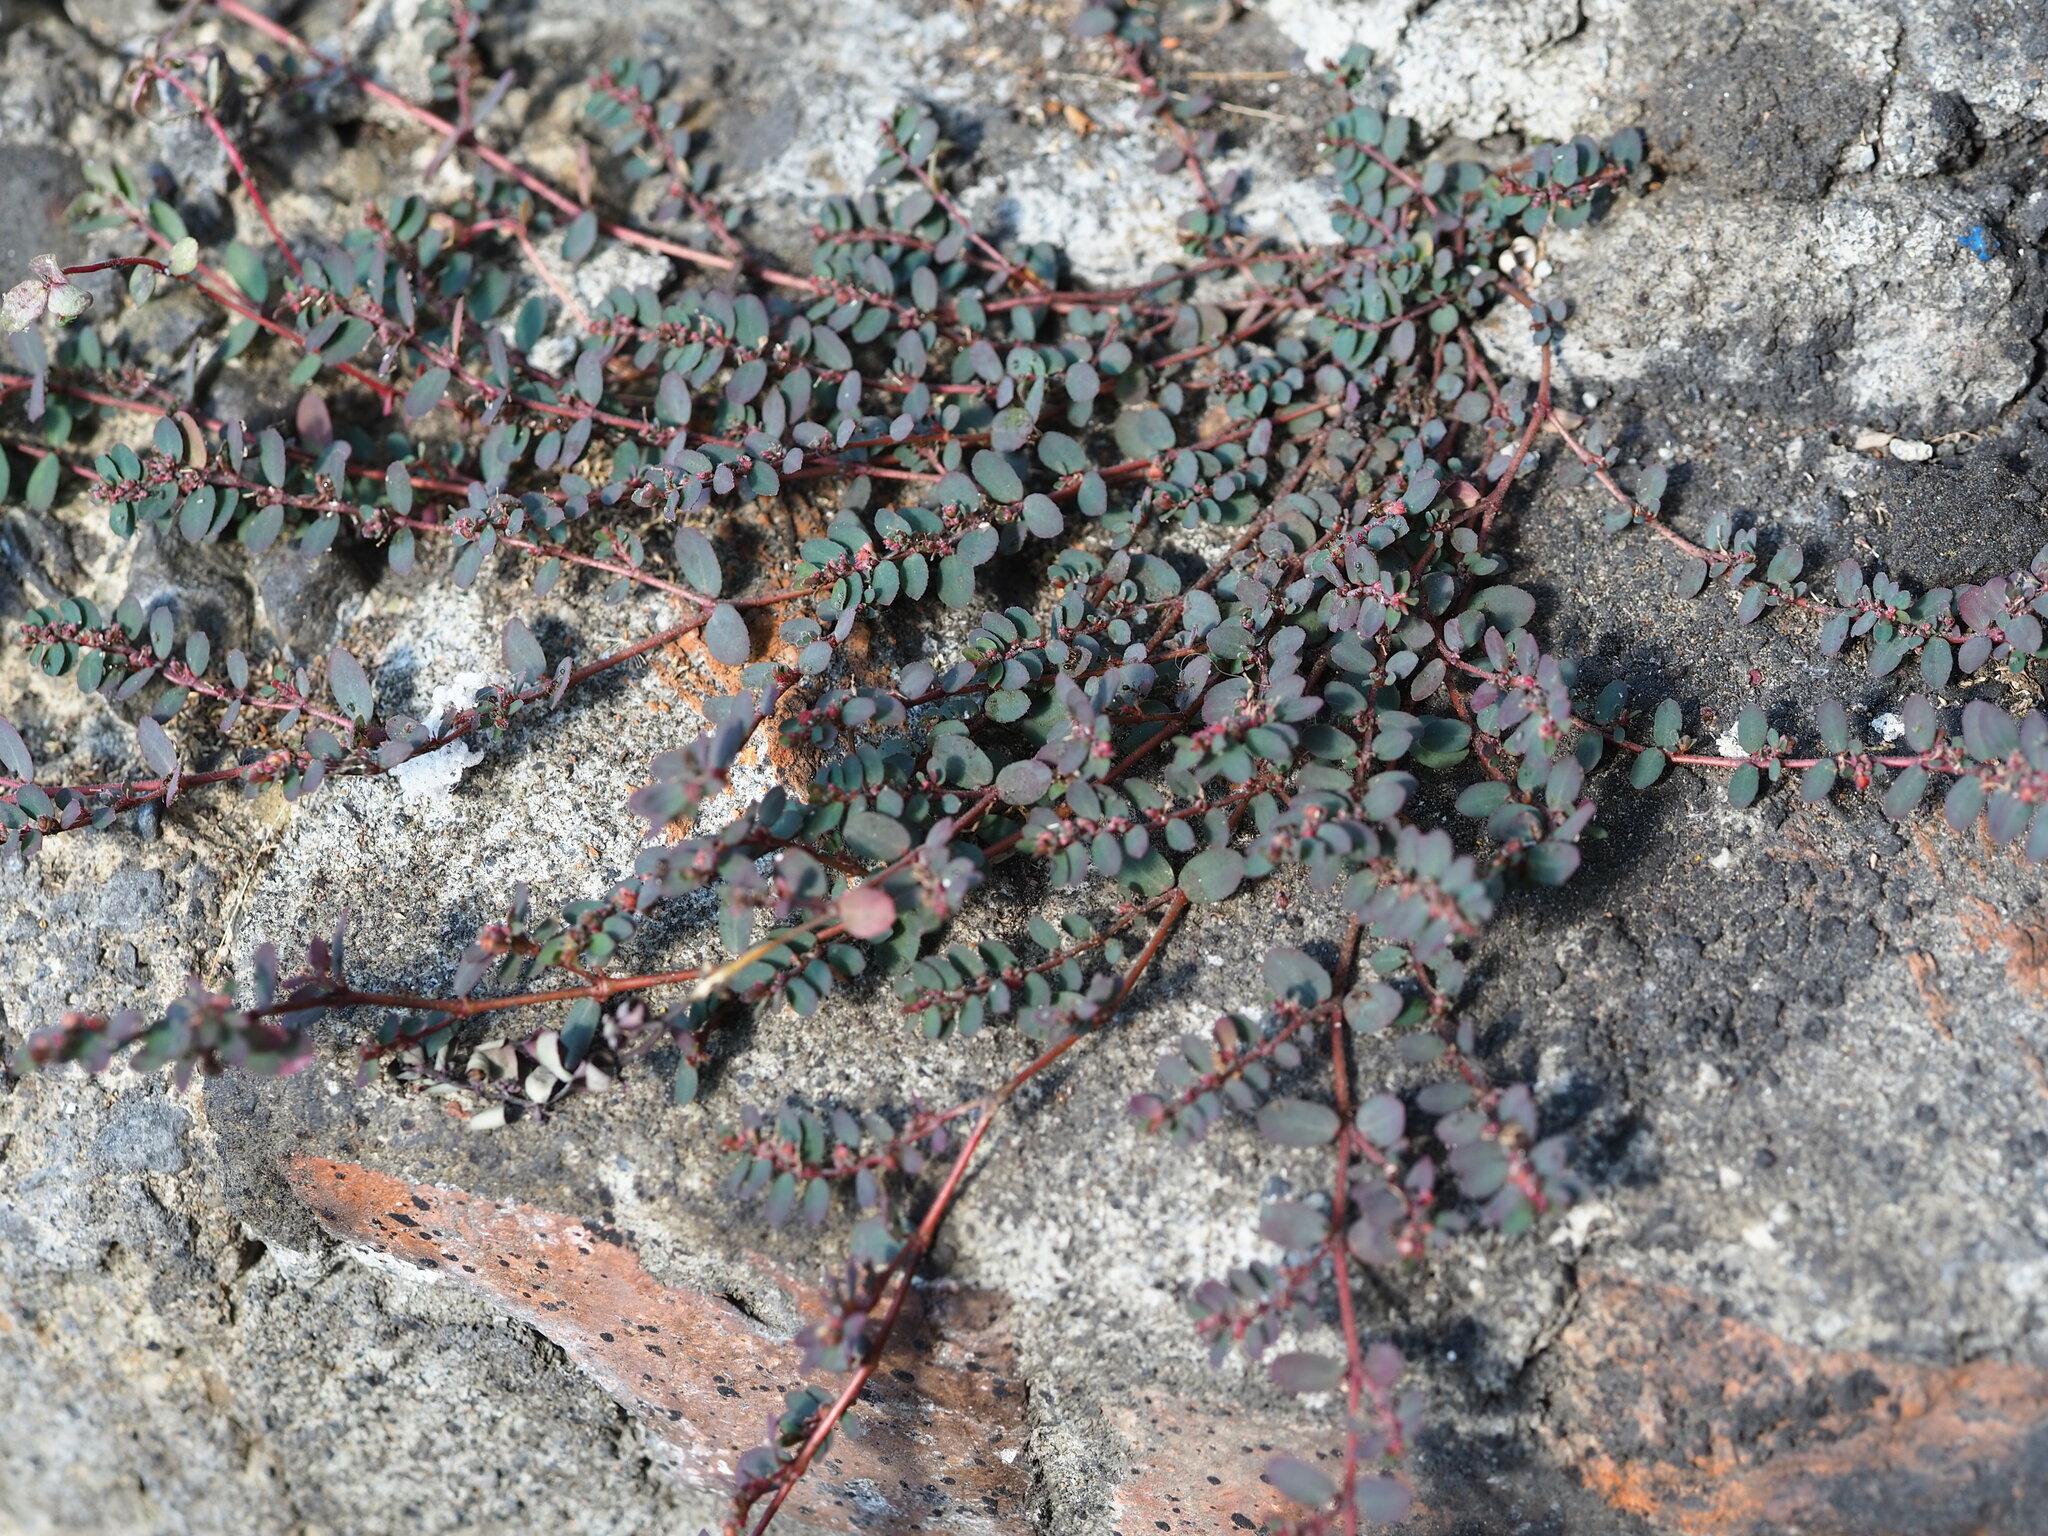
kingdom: Plantae
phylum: Tracheophyta
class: Magnoliopsida
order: Malpighiales
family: Euphorbiaceae
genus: Euphorbia
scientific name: Euphorbia prostrata
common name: Prostrate sandmat
